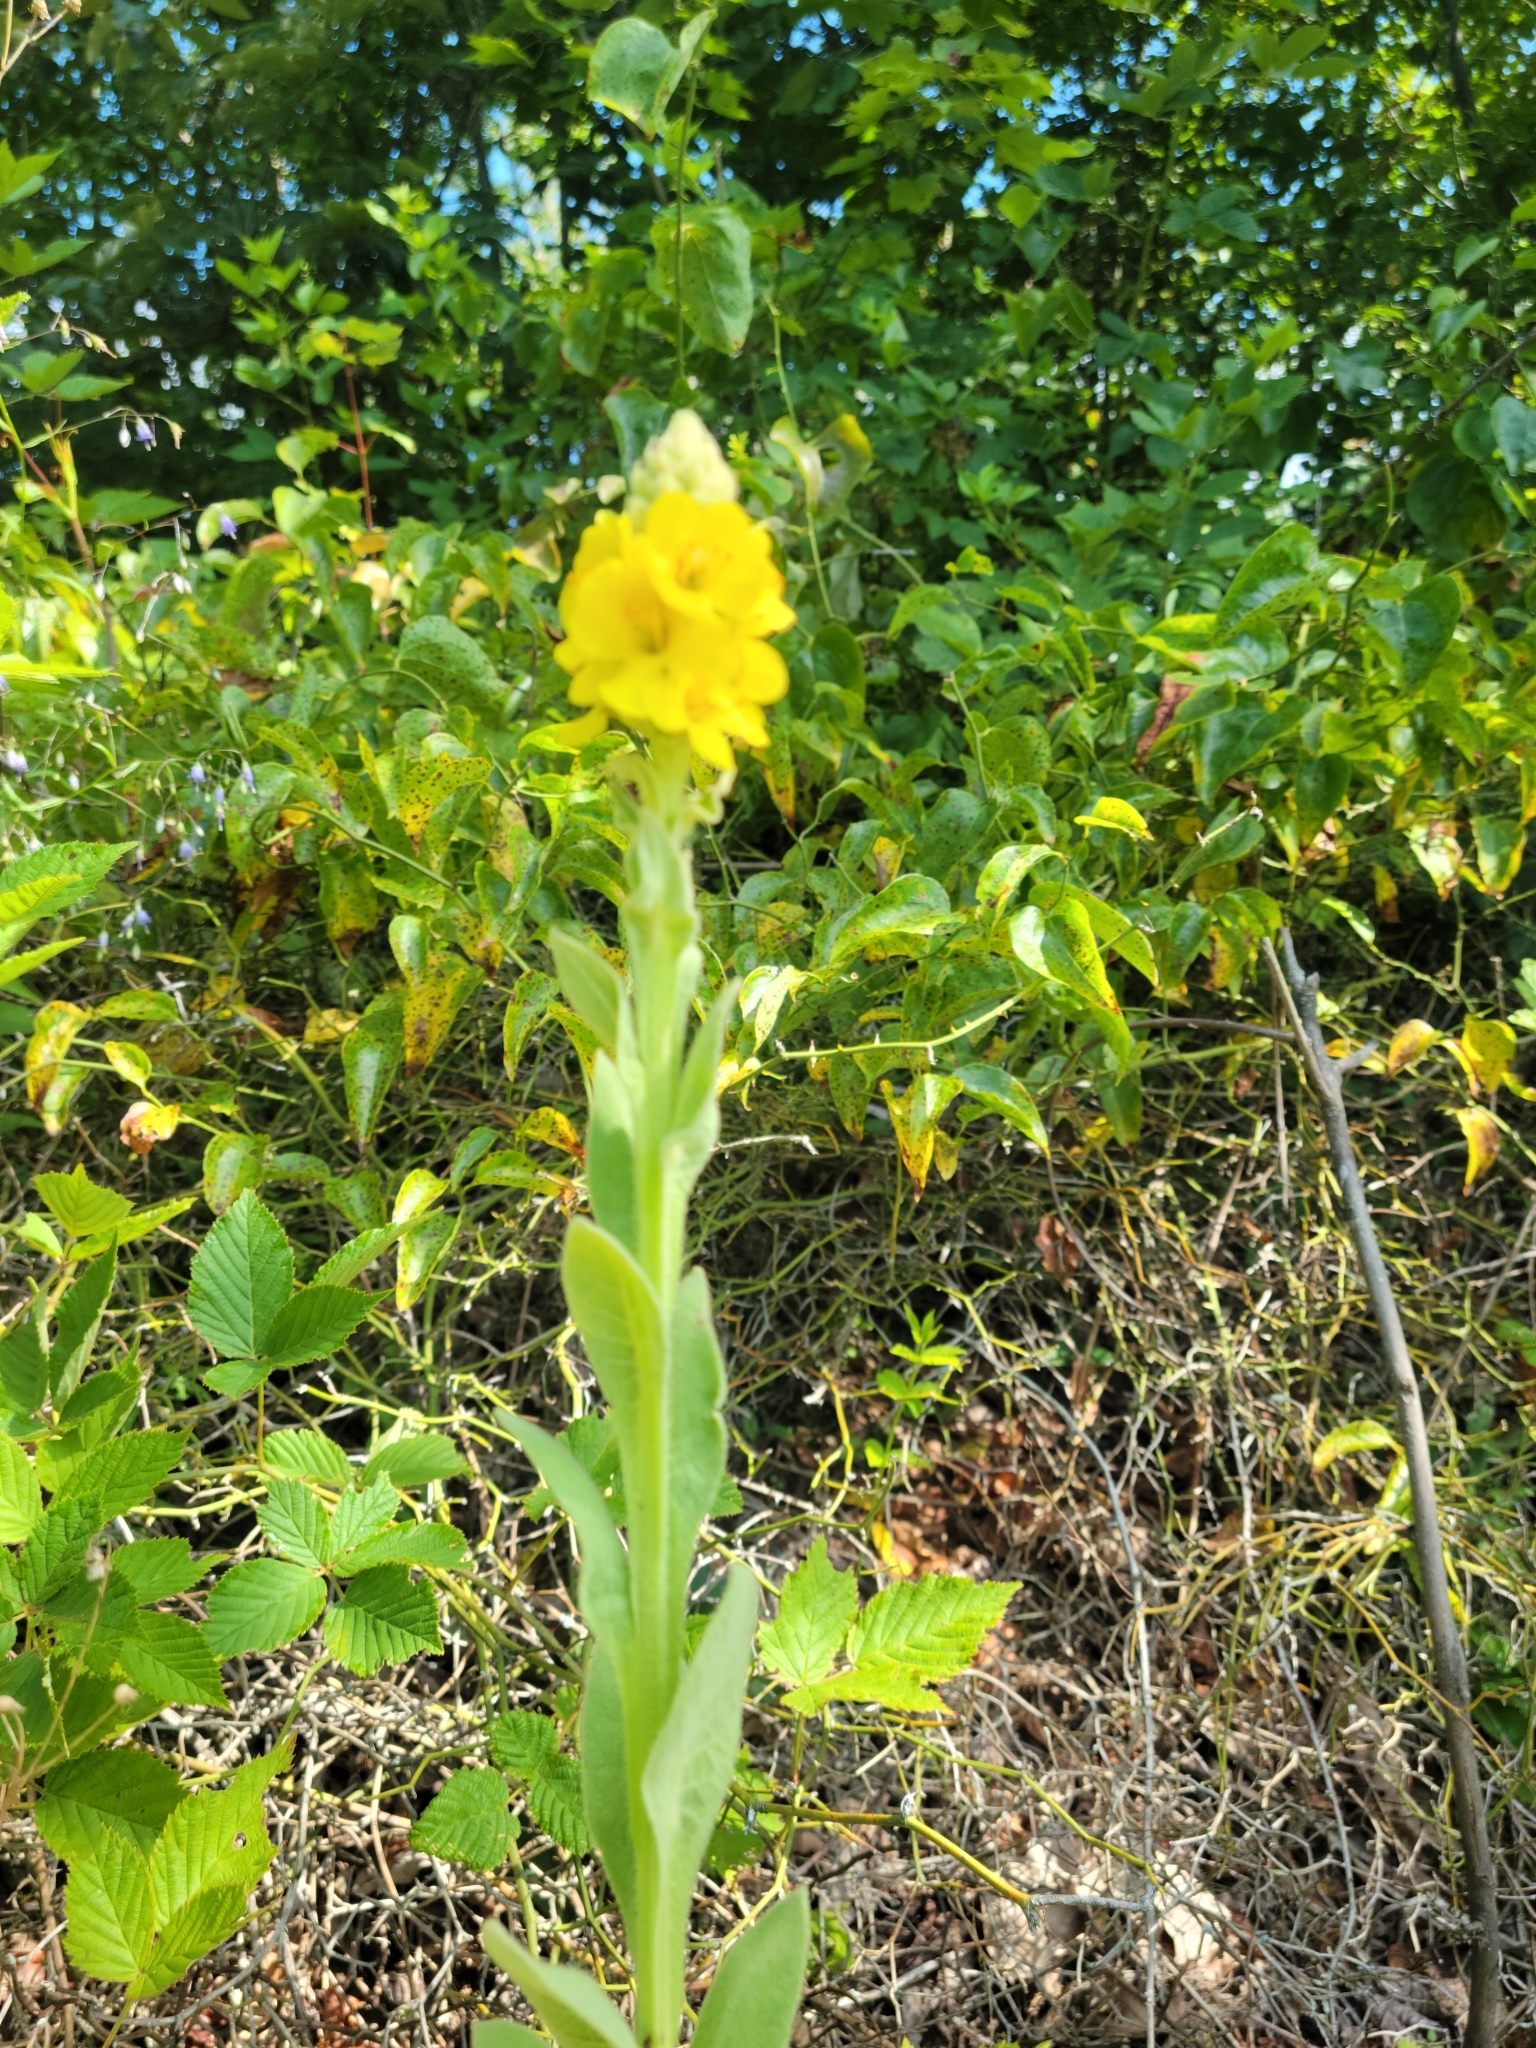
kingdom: Plantae
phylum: Tracheophyta
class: Magnoliopsida
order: Lamiales
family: Scrophulariaceae
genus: Verbascum
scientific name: Verbascum thapsus
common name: Common mullein
